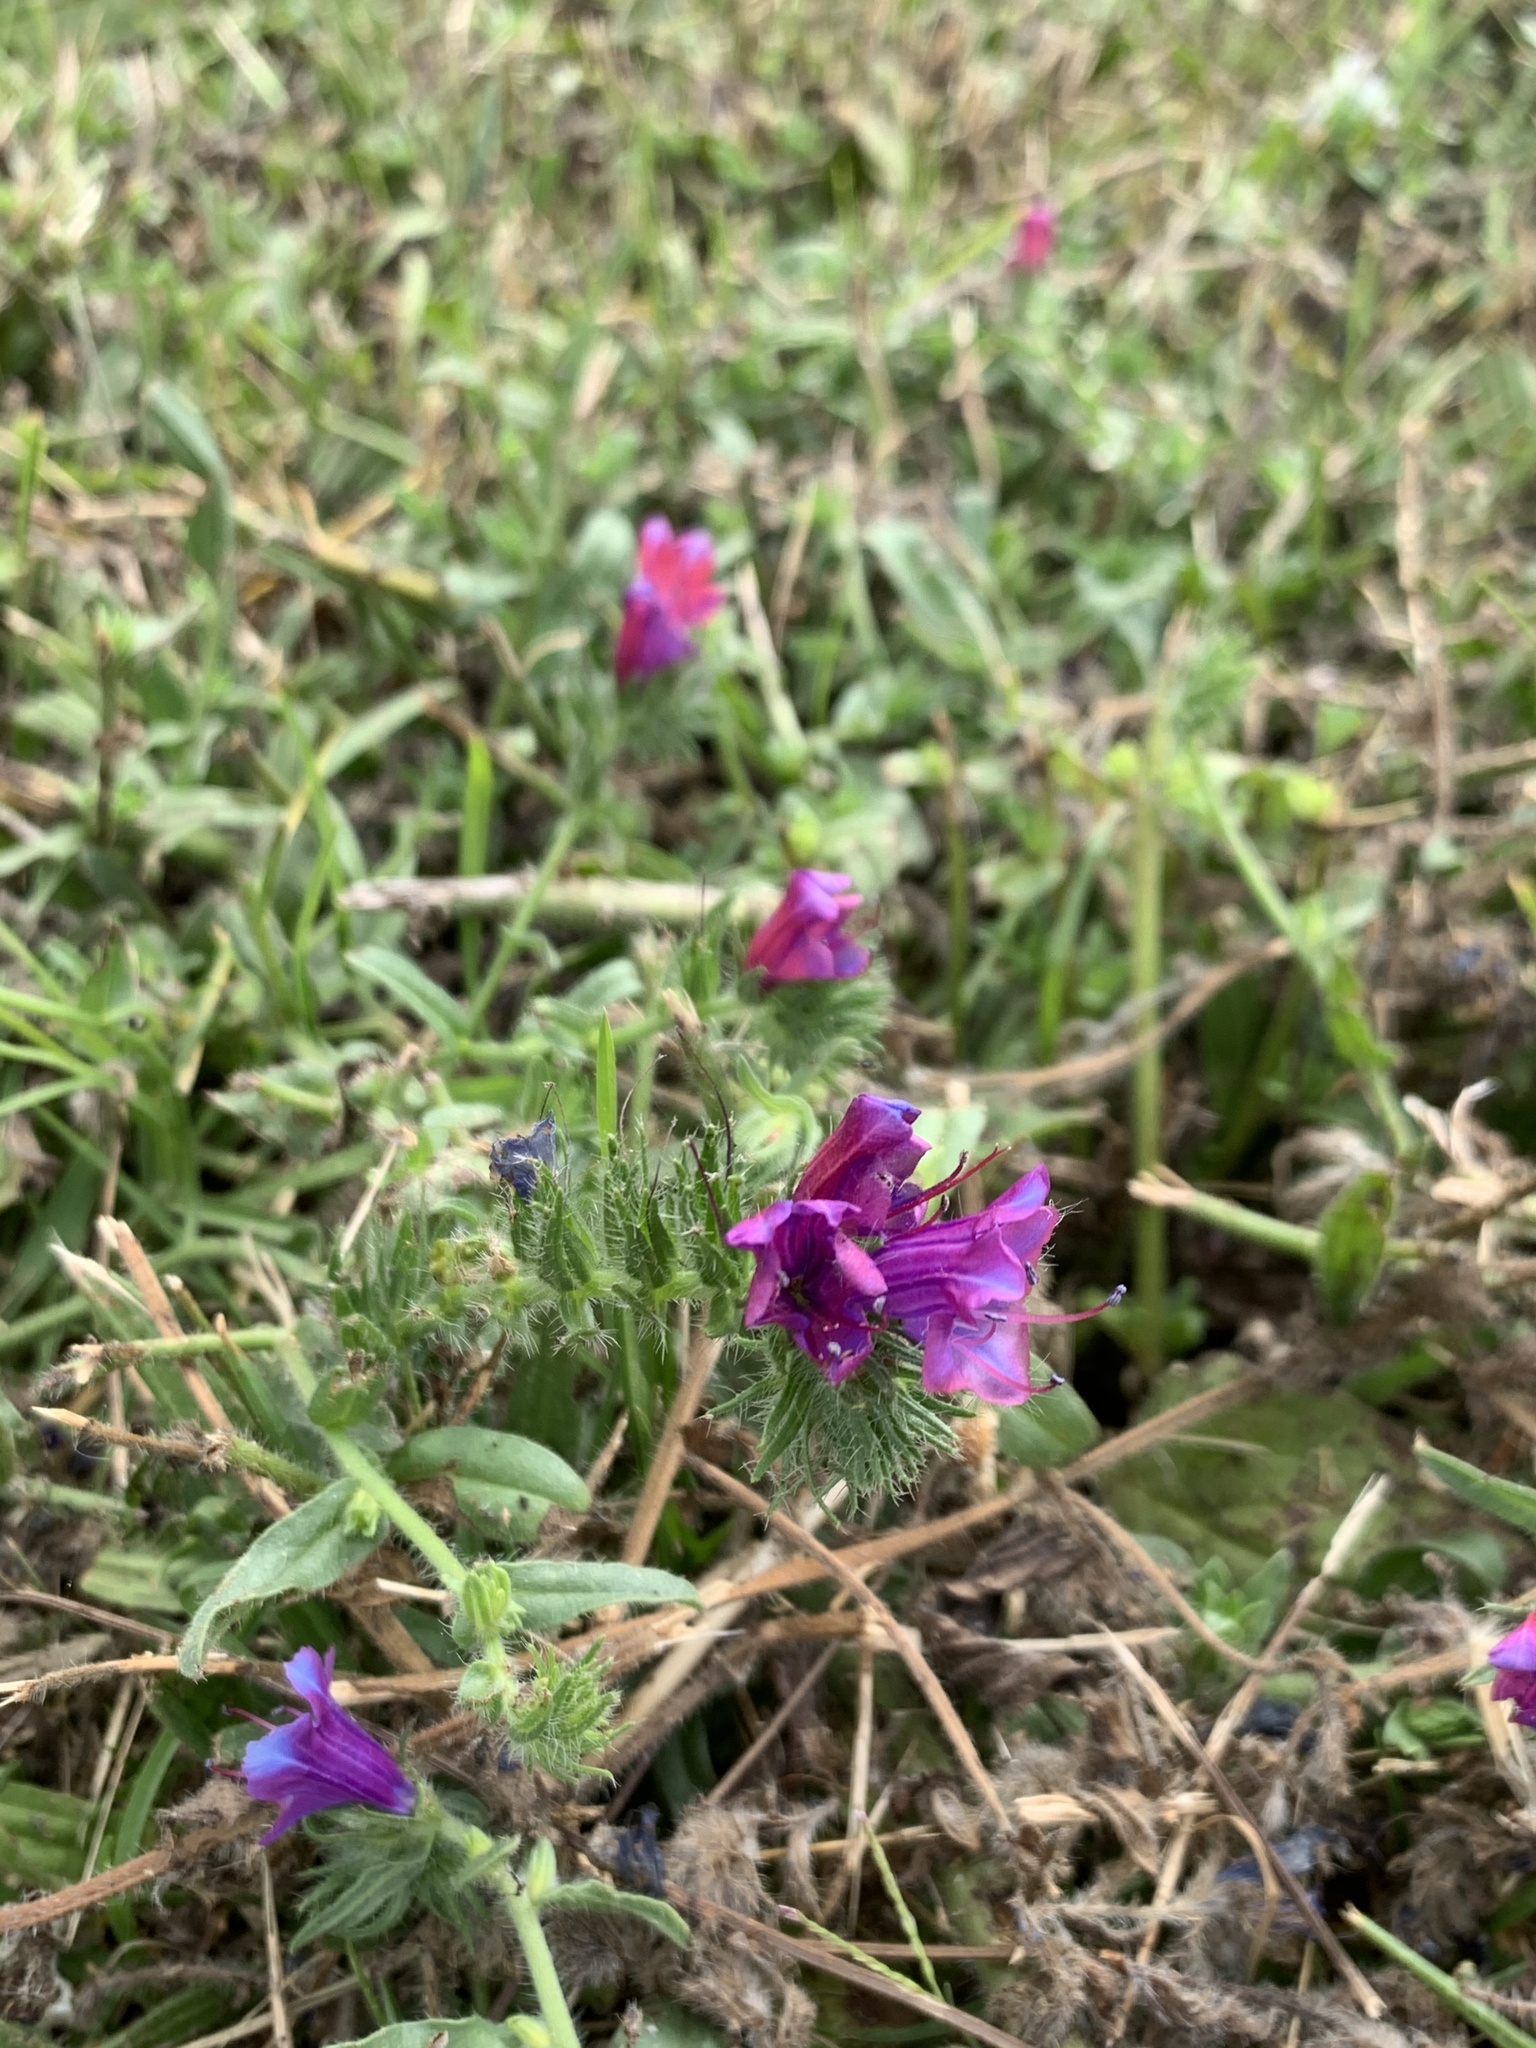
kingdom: Plantae
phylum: Tracheophyta
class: Magnoliopsida
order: Boraginales
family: Boraginaceae
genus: Echium
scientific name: Echium plantagineum
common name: Purple viper's-bugloss
